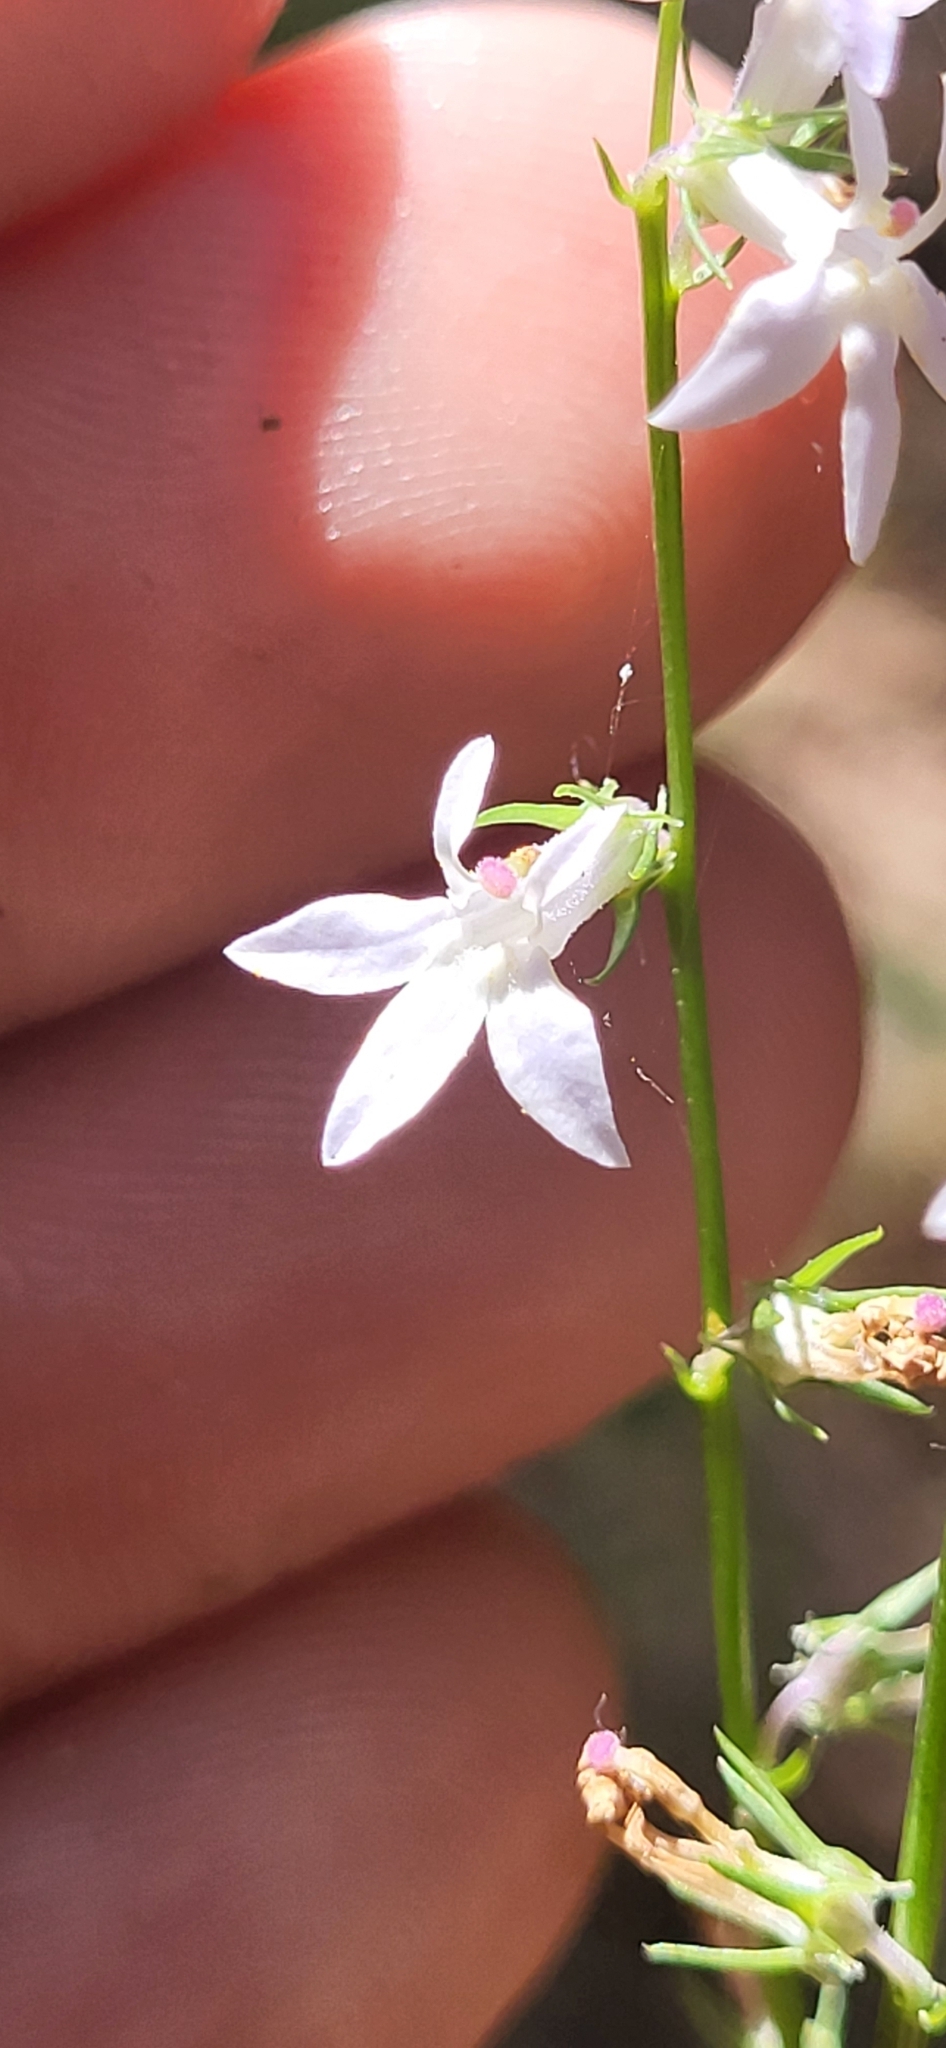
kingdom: Plantae
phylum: Tracheophyta
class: Magnoliopsida
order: Asterales
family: Campanulaceae
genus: Lobelia
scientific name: Lobelia appendiculata
